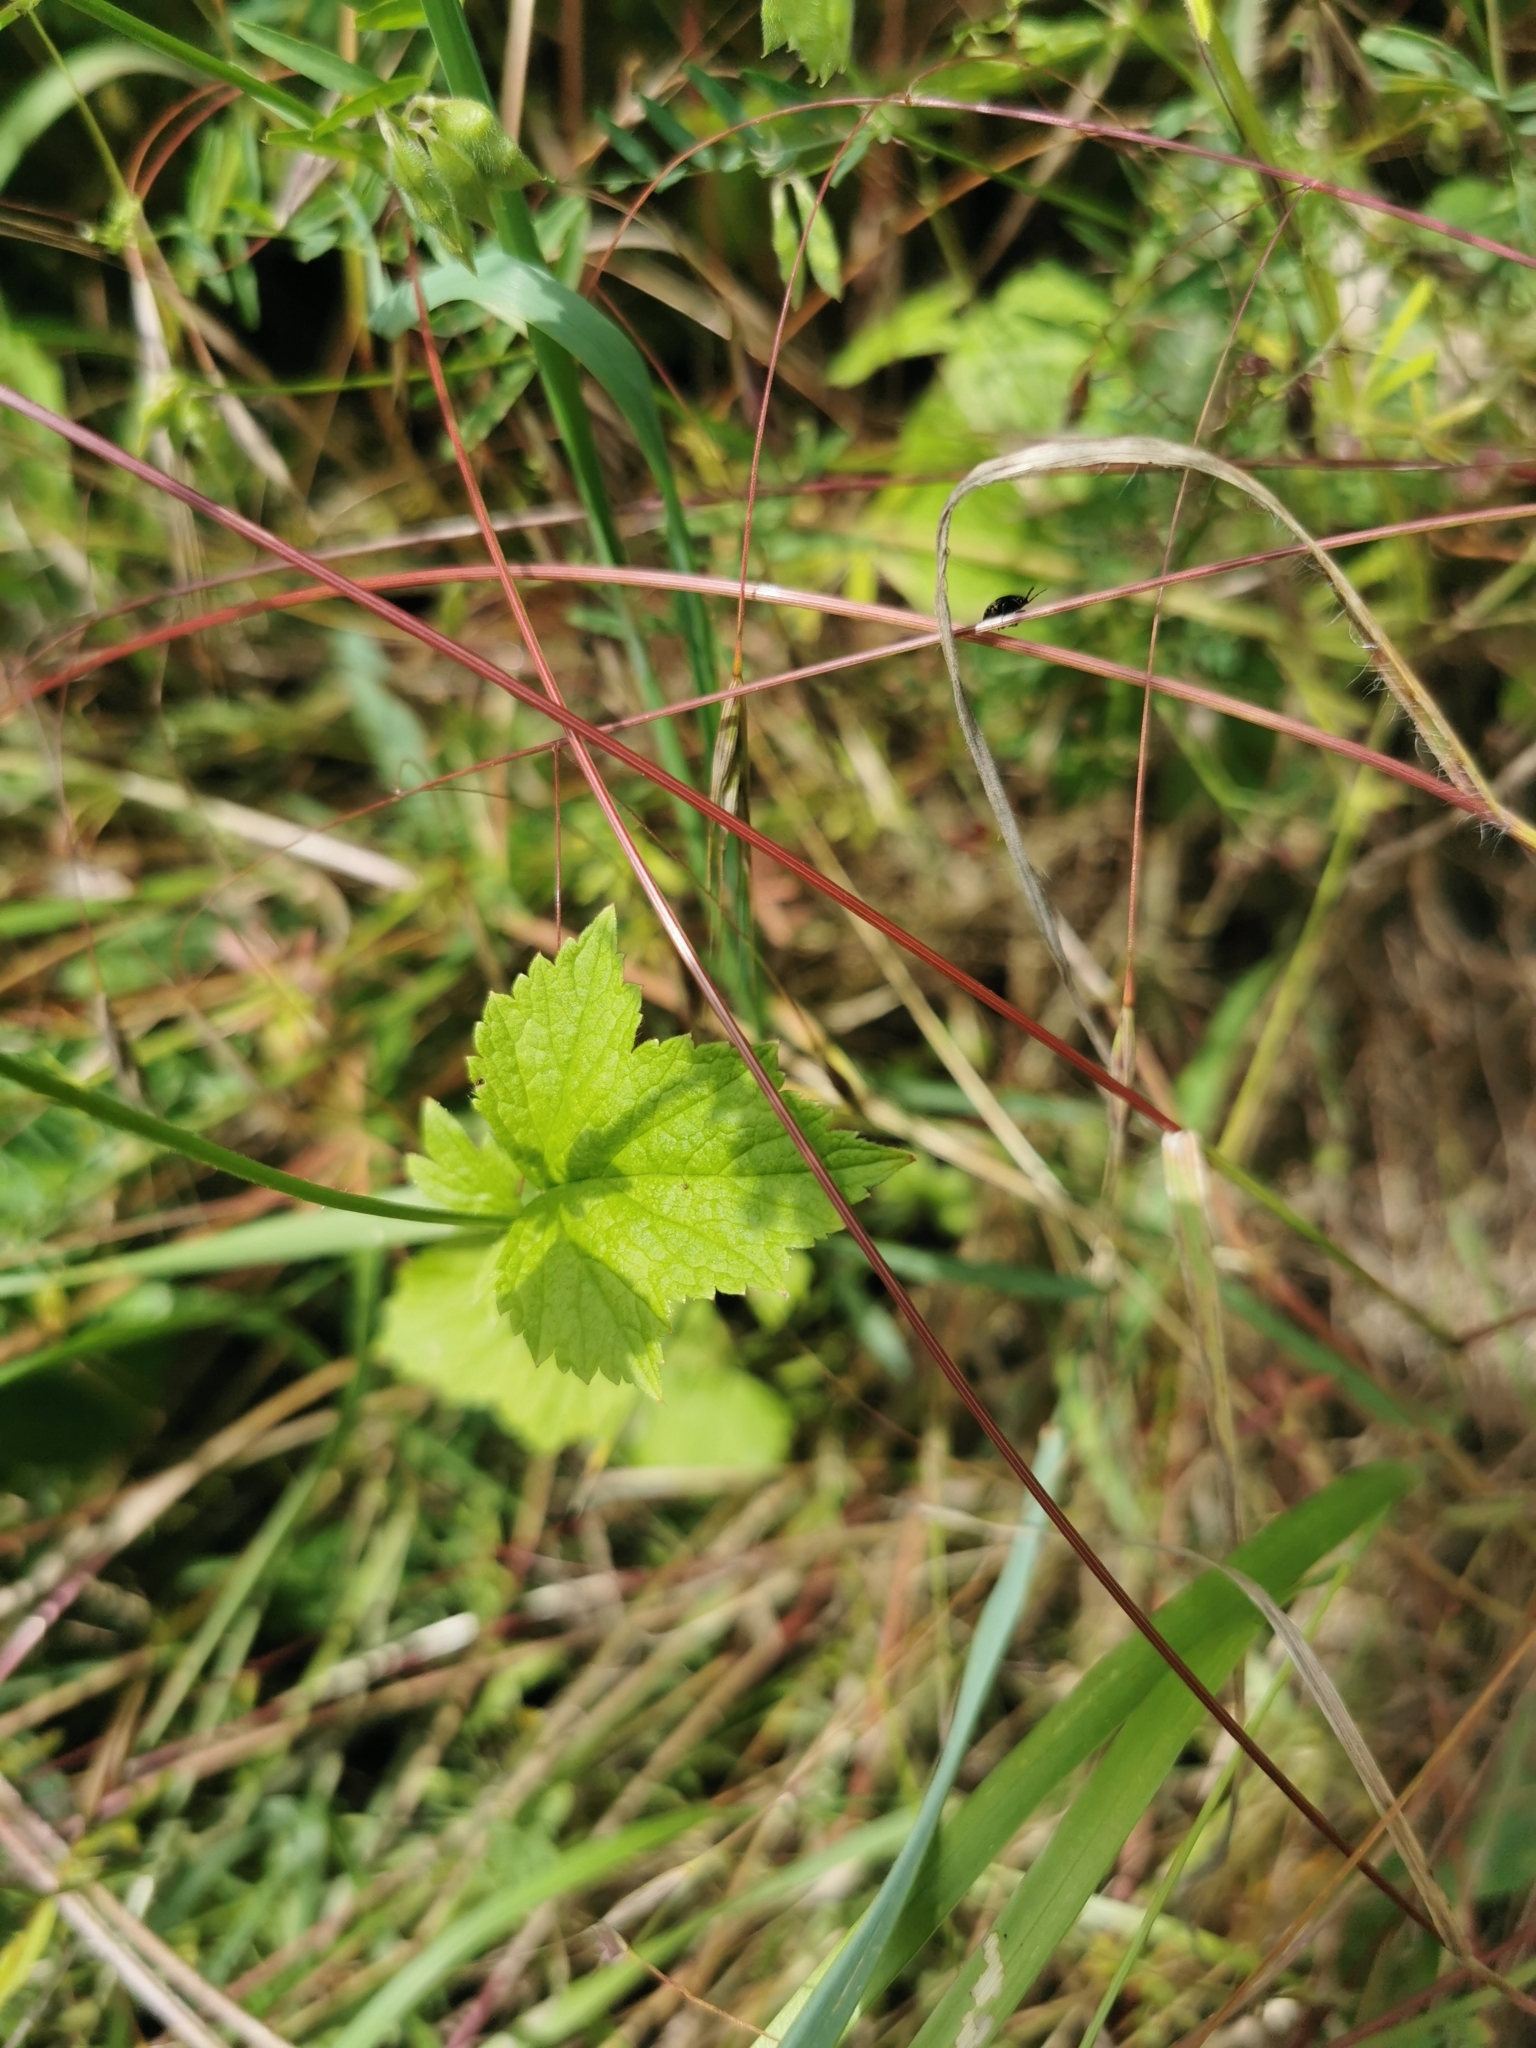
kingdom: Plantae
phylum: Tracheophyta
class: Magnoliopsida
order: Rosales
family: Rosaceae
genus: Geum
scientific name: Geum urbanum
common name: Wood avens
